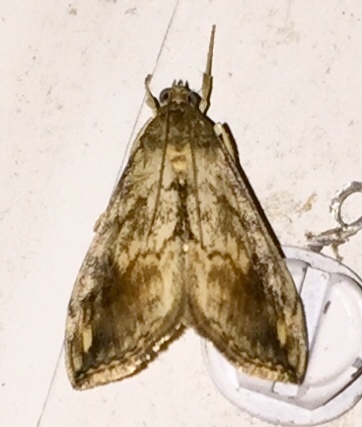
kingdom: Animalia
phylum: Arthropoda
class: Insecta
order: Lepidoptera
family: Crambidae
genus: Evergestis
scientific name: Evergestis rimosalis
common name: Cross-striped cabbageworm moth
